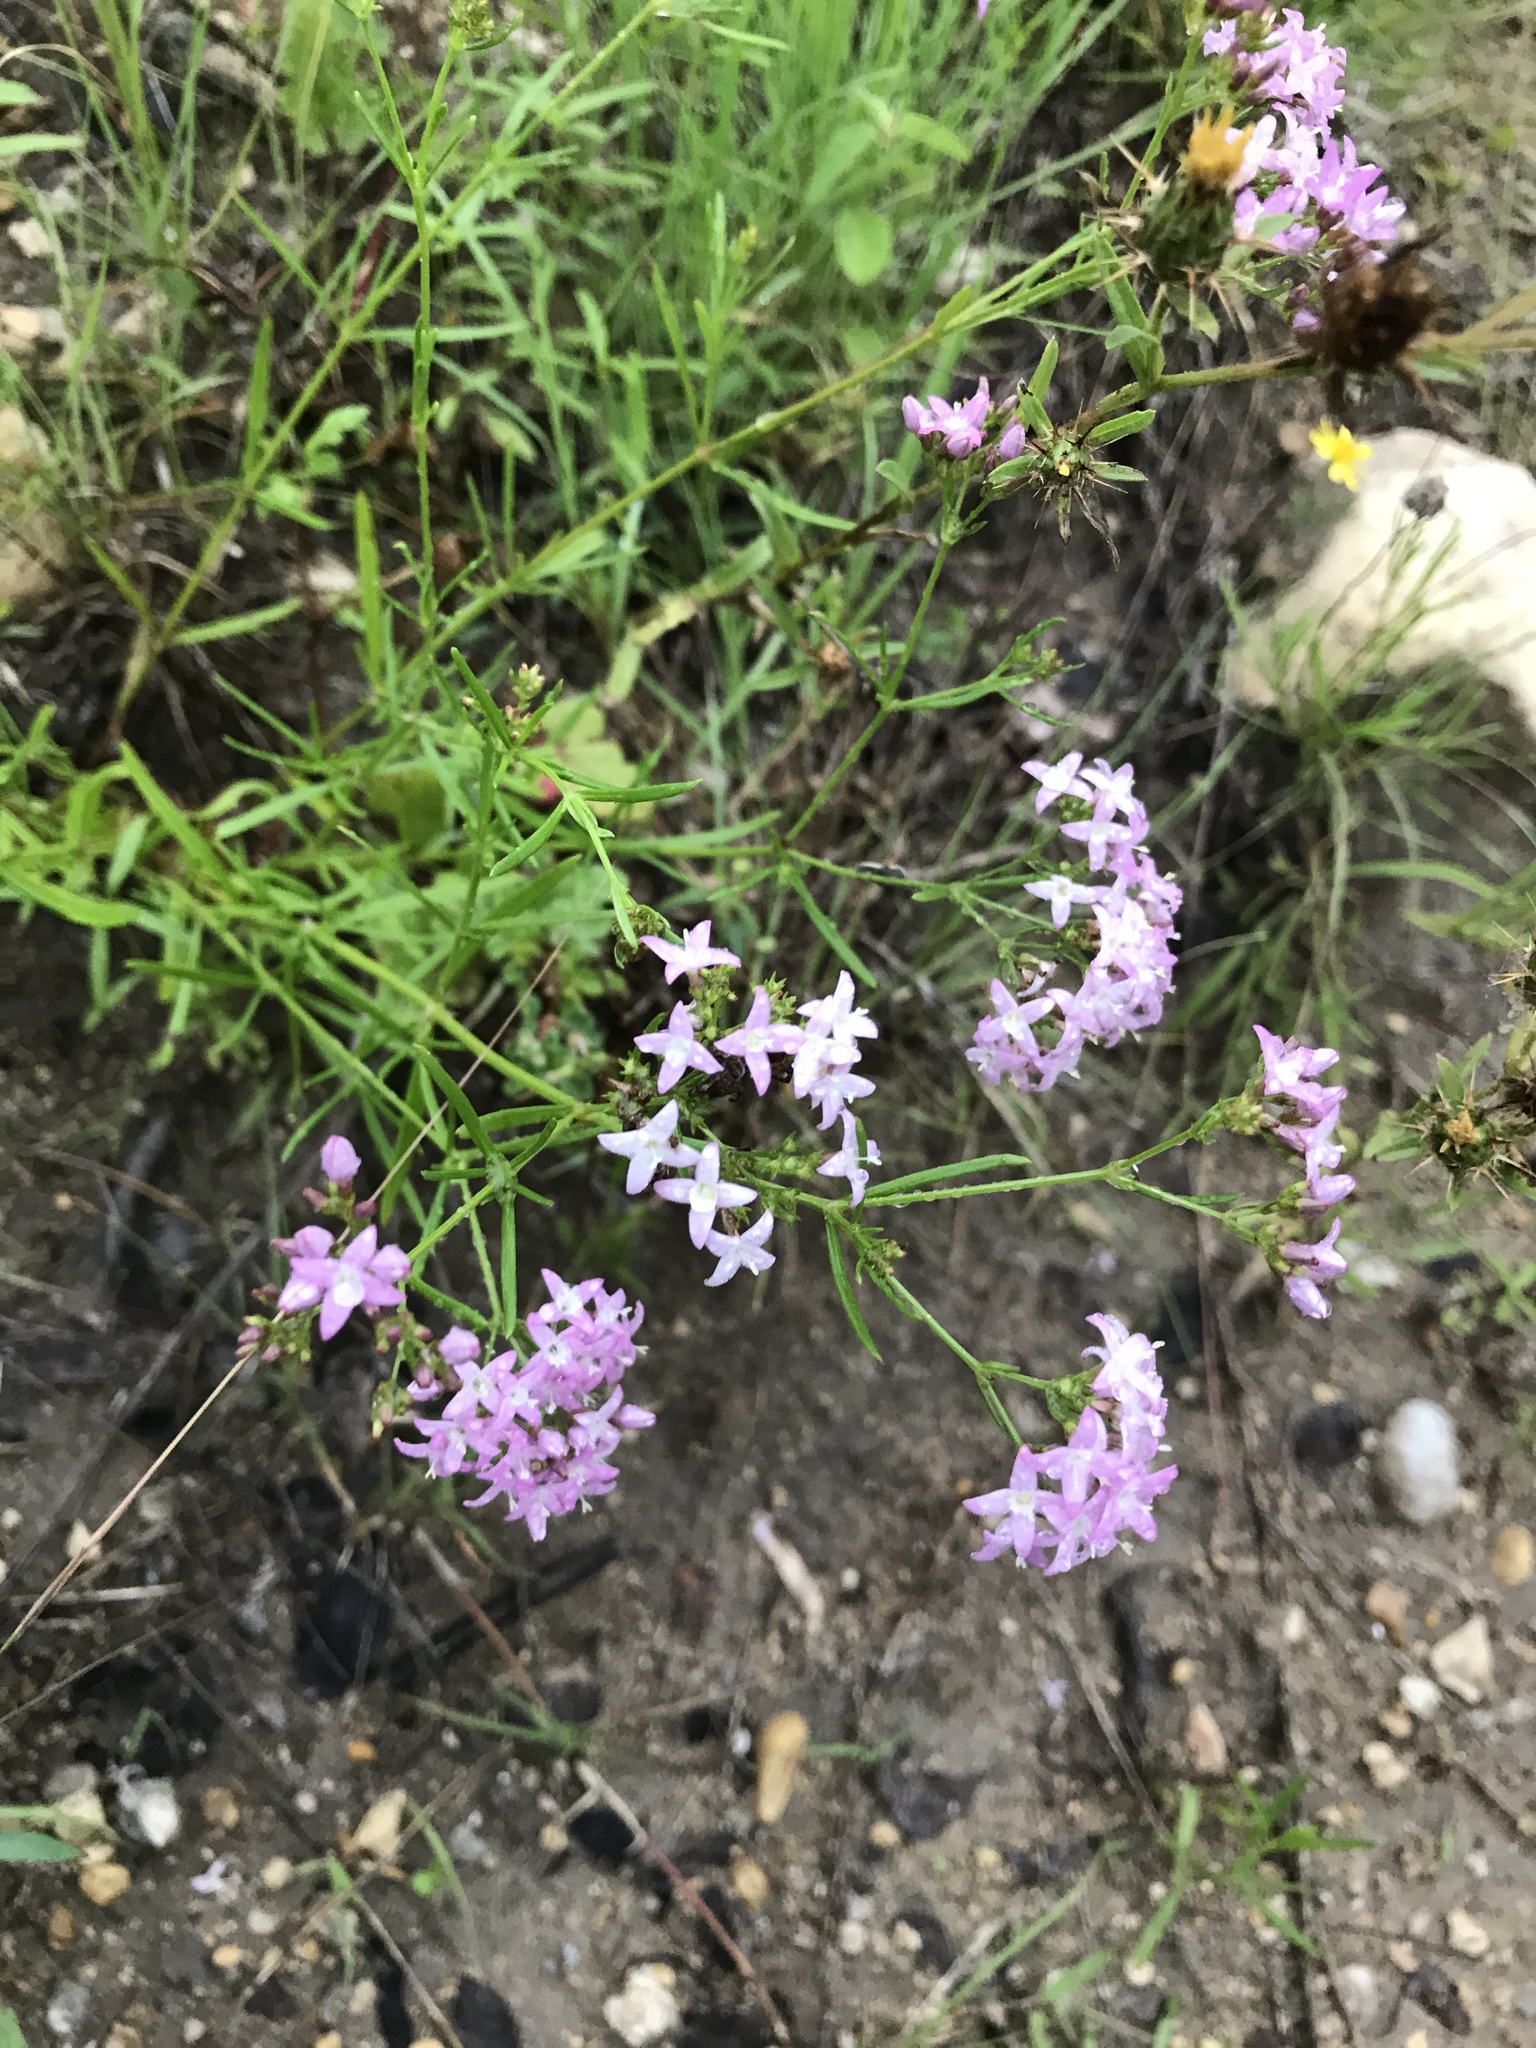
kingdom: Plantae
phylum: Tracheophyta
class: Magnoliopsida
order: Gentianales
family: Rubiaceae
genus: Stenaria
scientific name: Stenaria nigricans
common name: Diamondflowers
